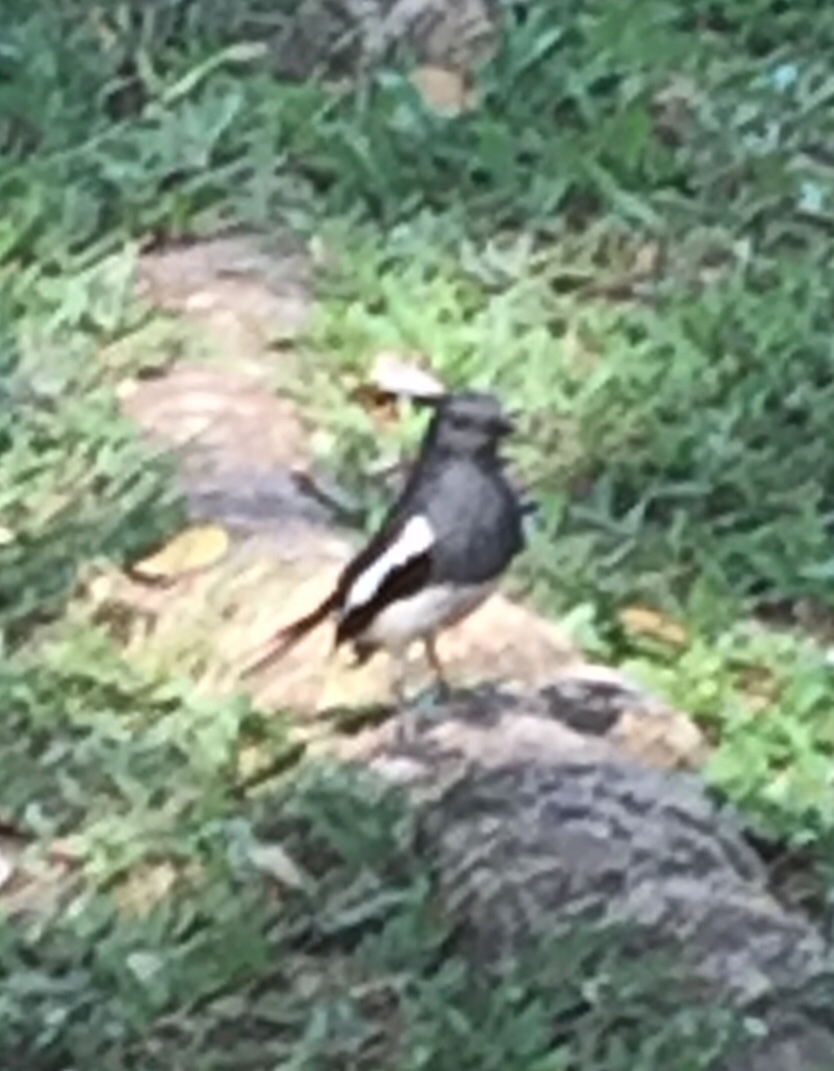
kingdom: Animalia
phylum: Chordata
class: Aves
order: Passeriformes
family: Muscicapidae
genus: Copsychus
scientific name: Copsychus saularis
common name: Oriental magpie-robin
